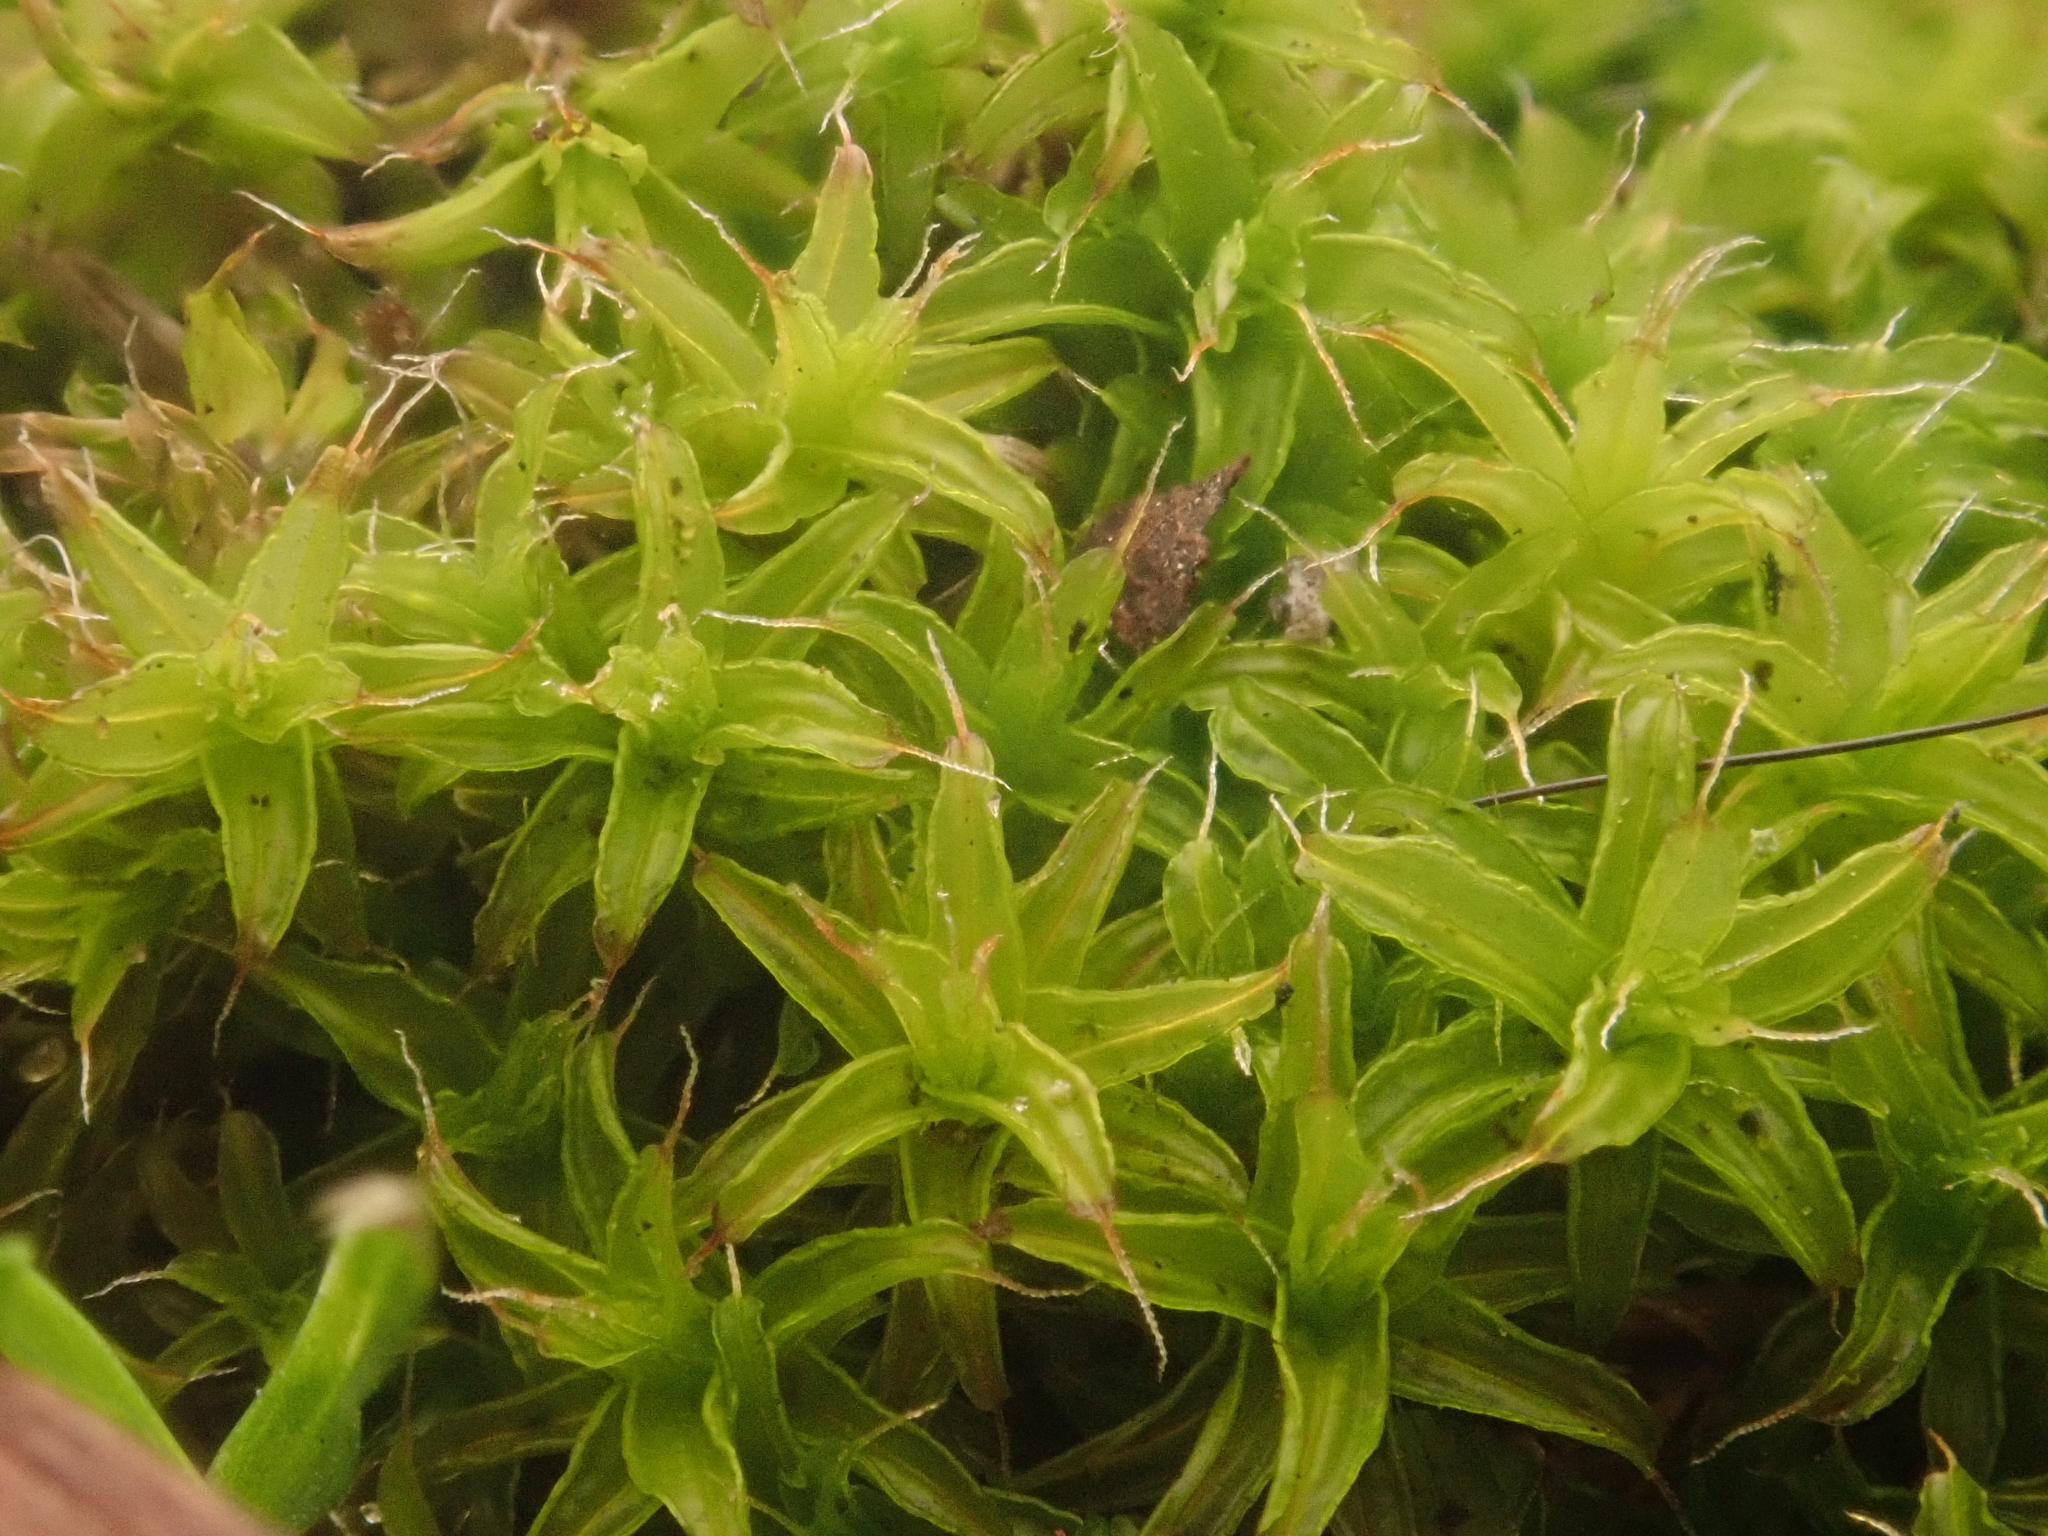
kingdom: Plantae
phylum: Bryophyta
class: Bryopsida
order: Pottiales
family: Pottiaceae
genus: Syntrichia
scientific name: Syntrichia ruralis
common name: Sidewalk screw moss
